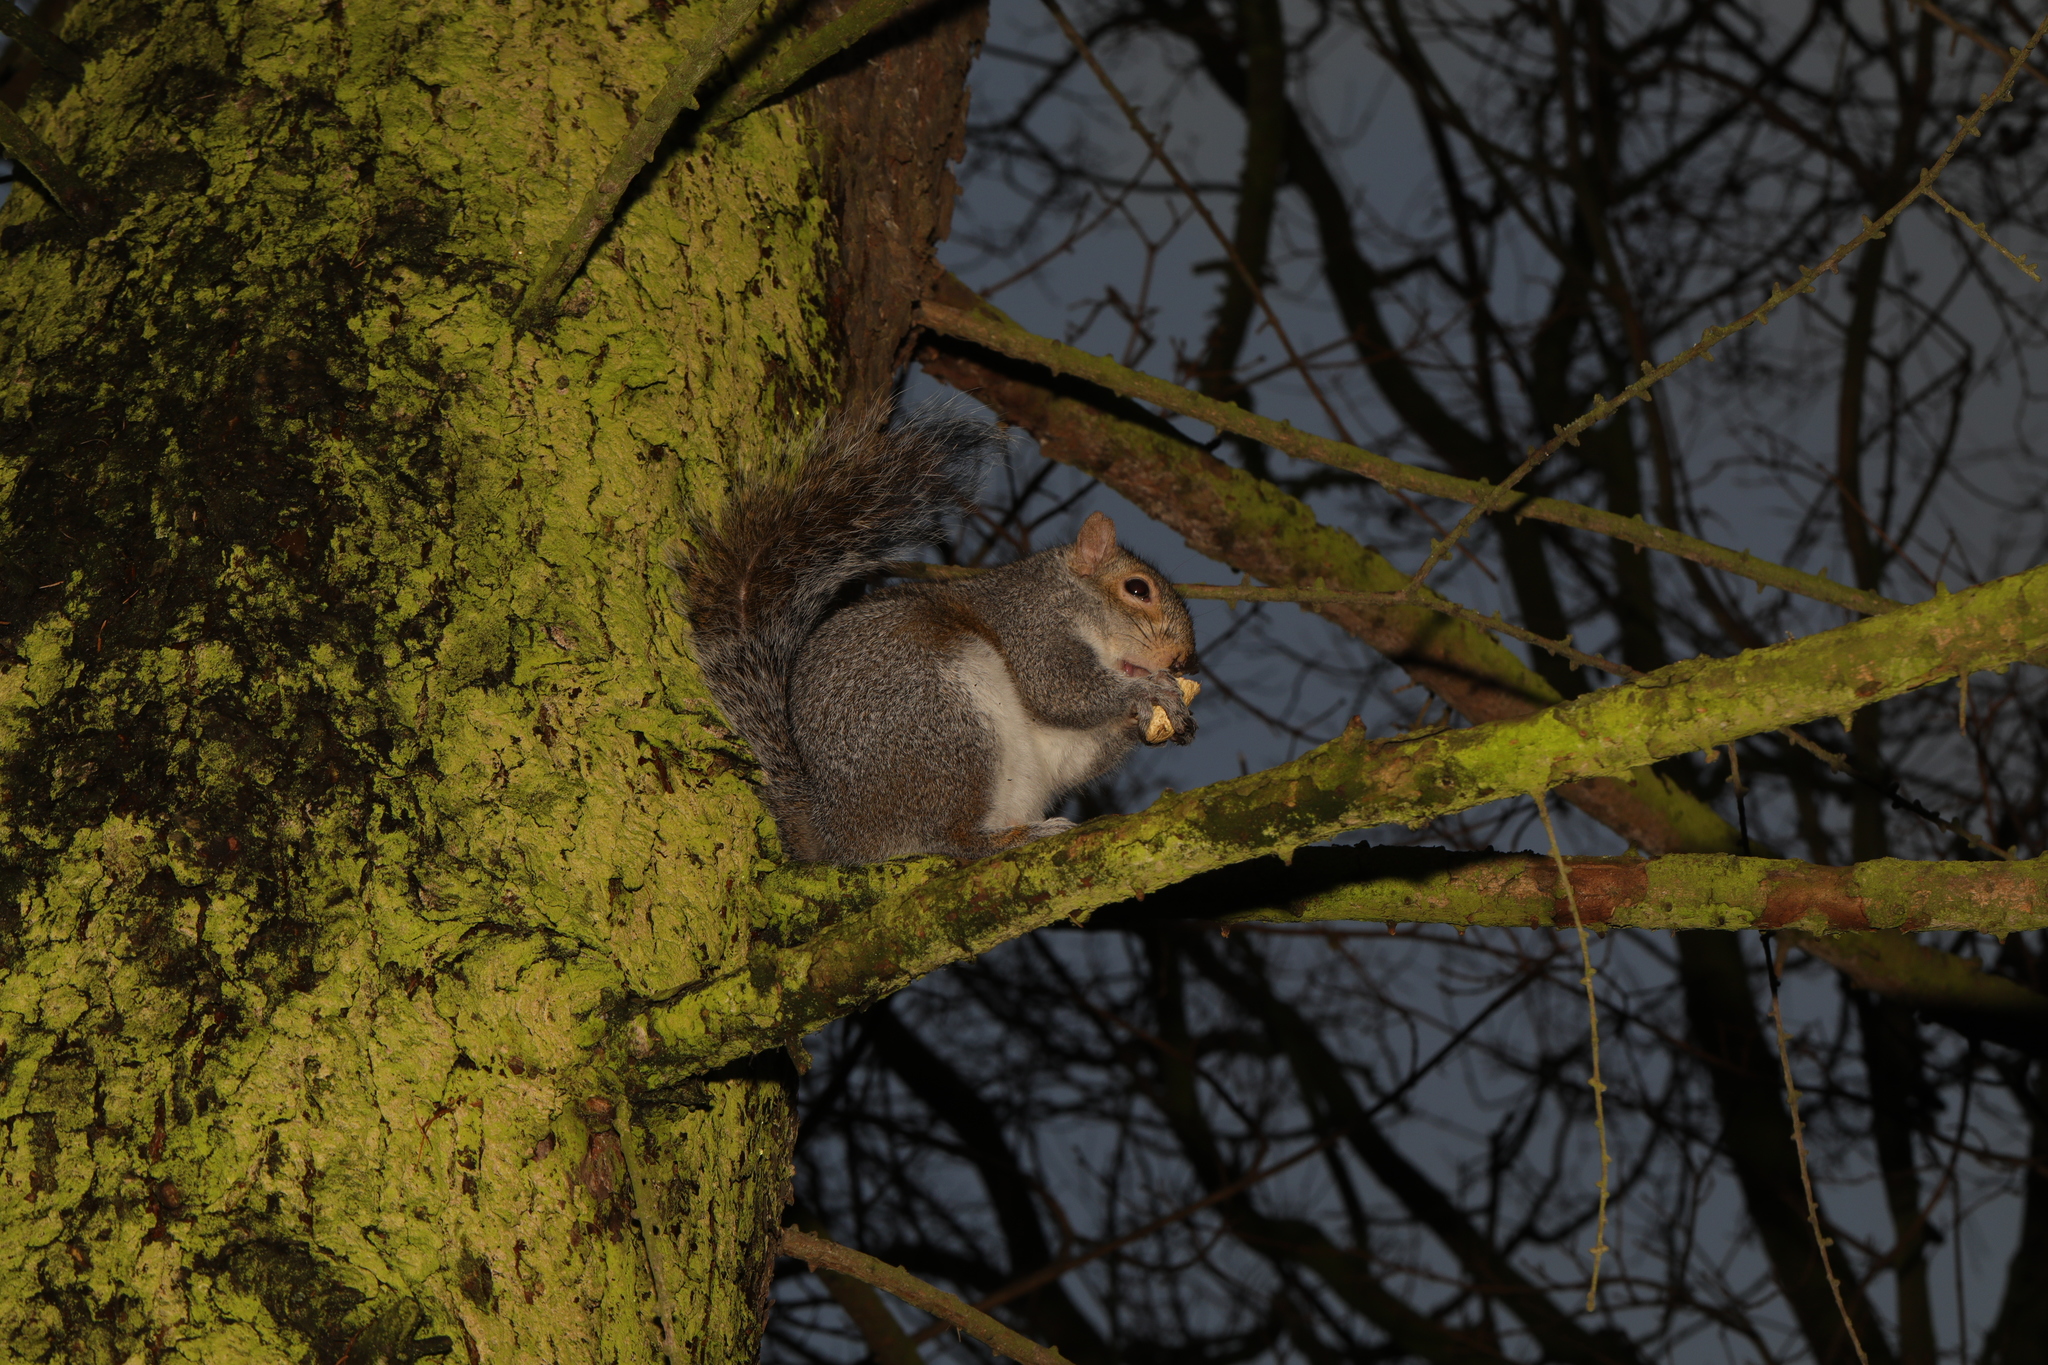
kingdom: Animalia
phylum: Chordata
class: Mammalia
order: Rodentia
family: Sciuridae
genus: Sciurus
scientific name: Sciurus carolinensis
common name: Eastern gray squirrel
